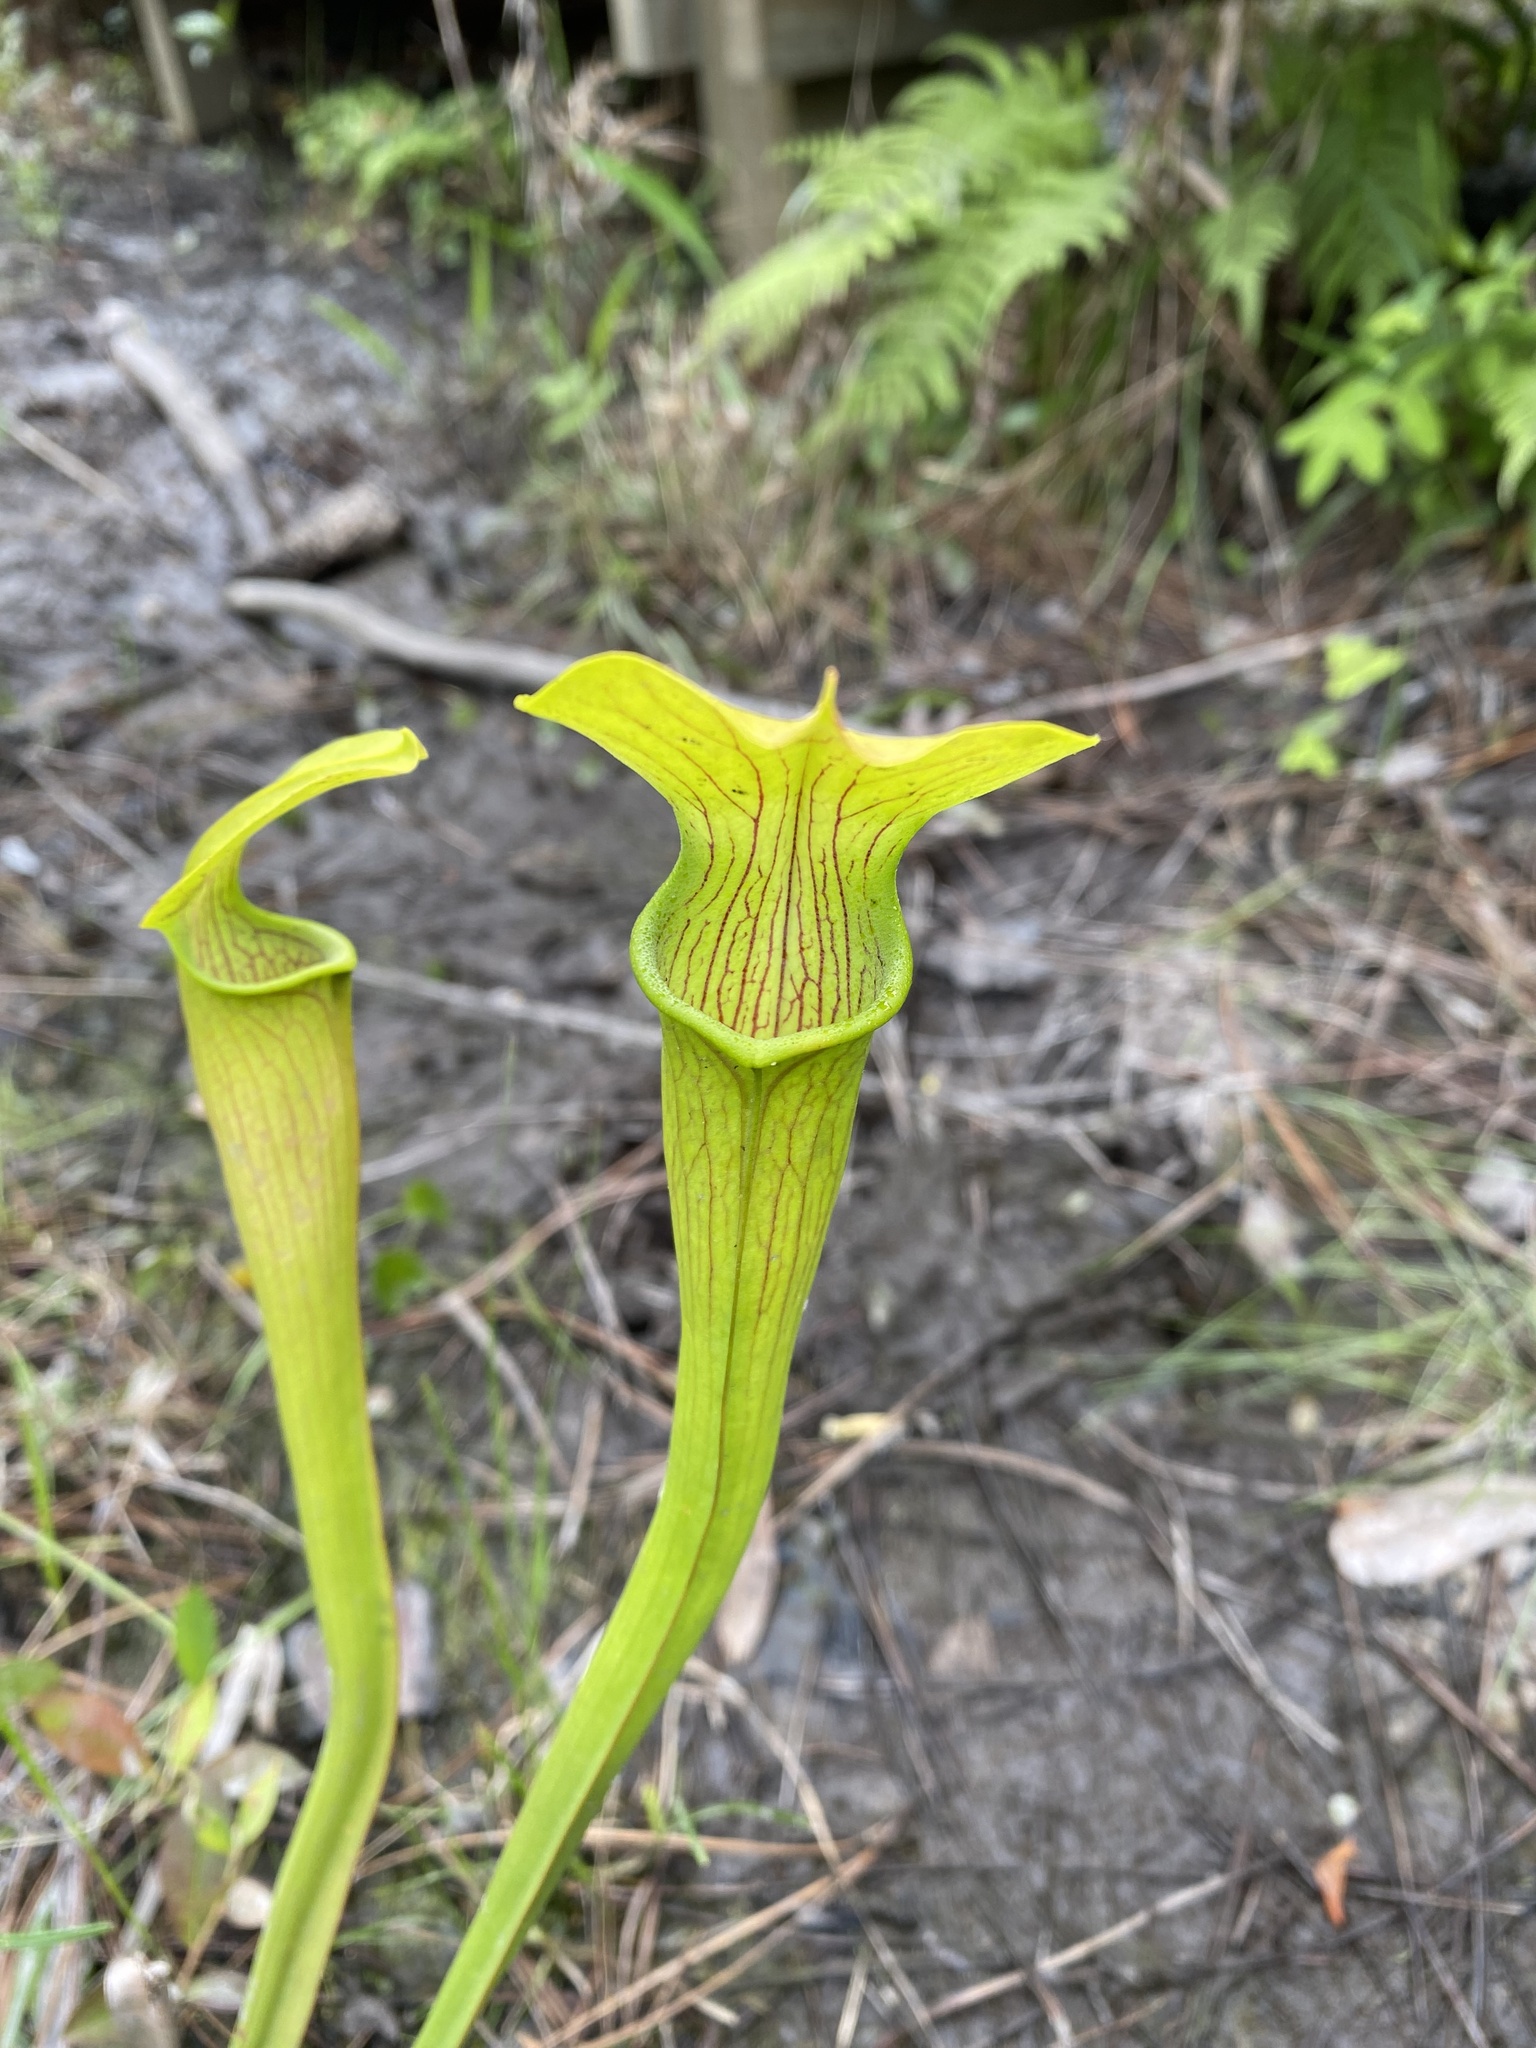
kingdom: Plantae
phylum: Tracheophyta
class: Magnoliopsida
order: Ericales
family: Sarraceniaceae
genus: Sarracenia
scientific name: Sarracenia alata
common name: Yellow trumpets
